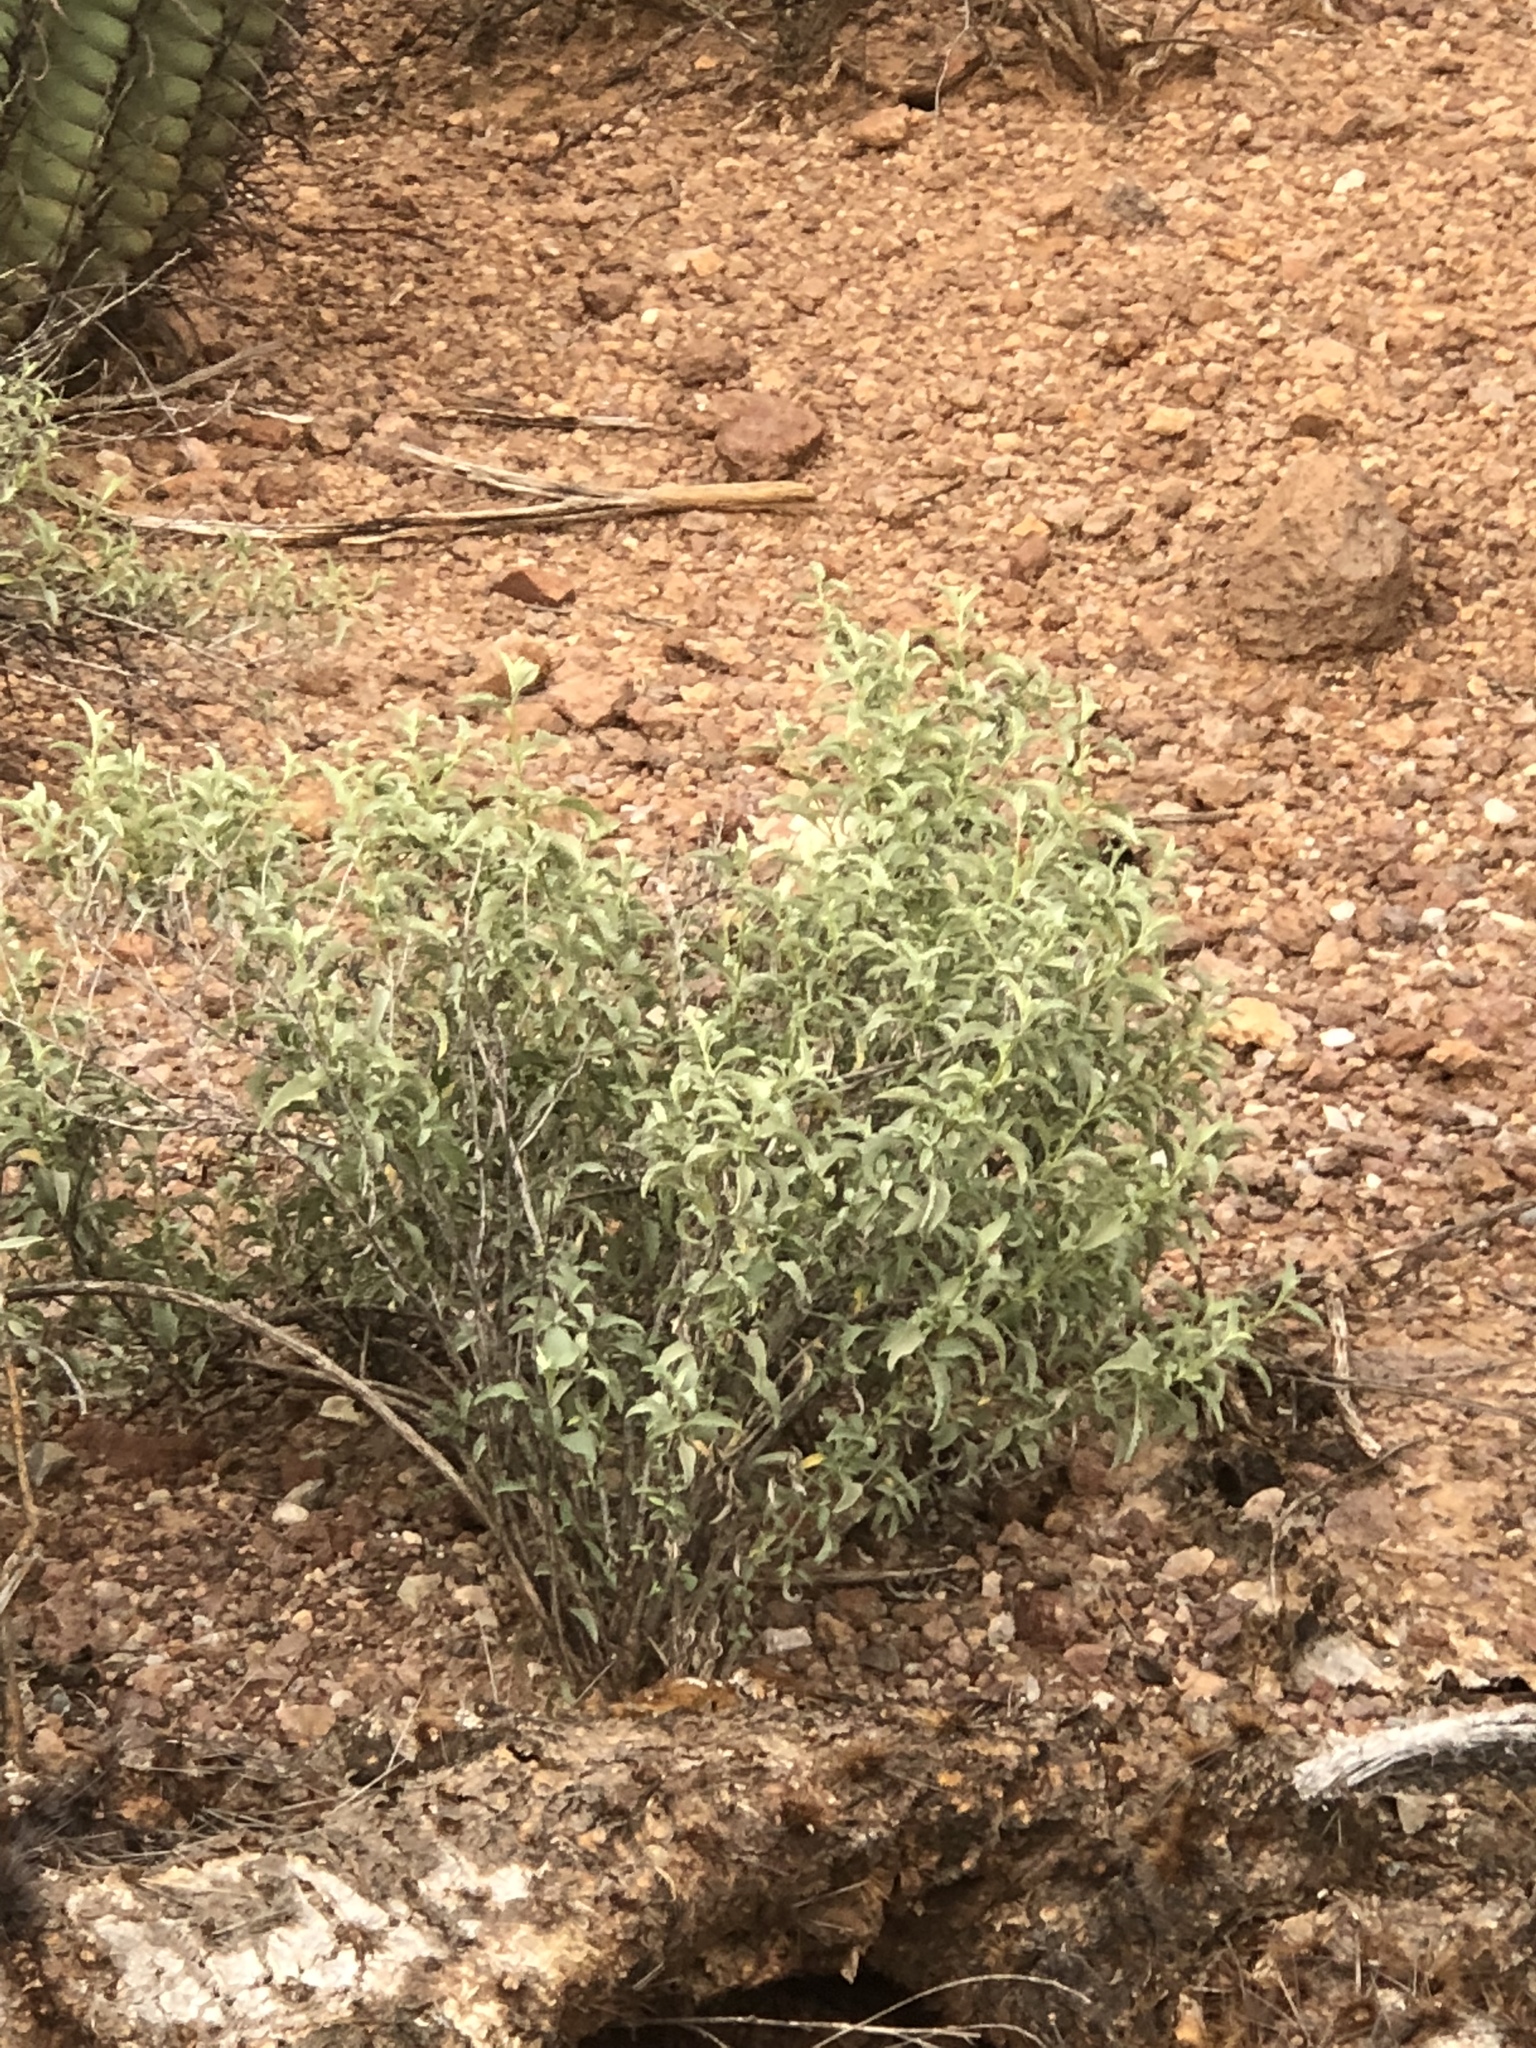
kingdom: Plantae
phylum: Tracheophyta
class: Magnoliopsida
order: Asterales
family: Asteraceae
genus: Ambrosia
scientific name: Ambrosia deltoidea
